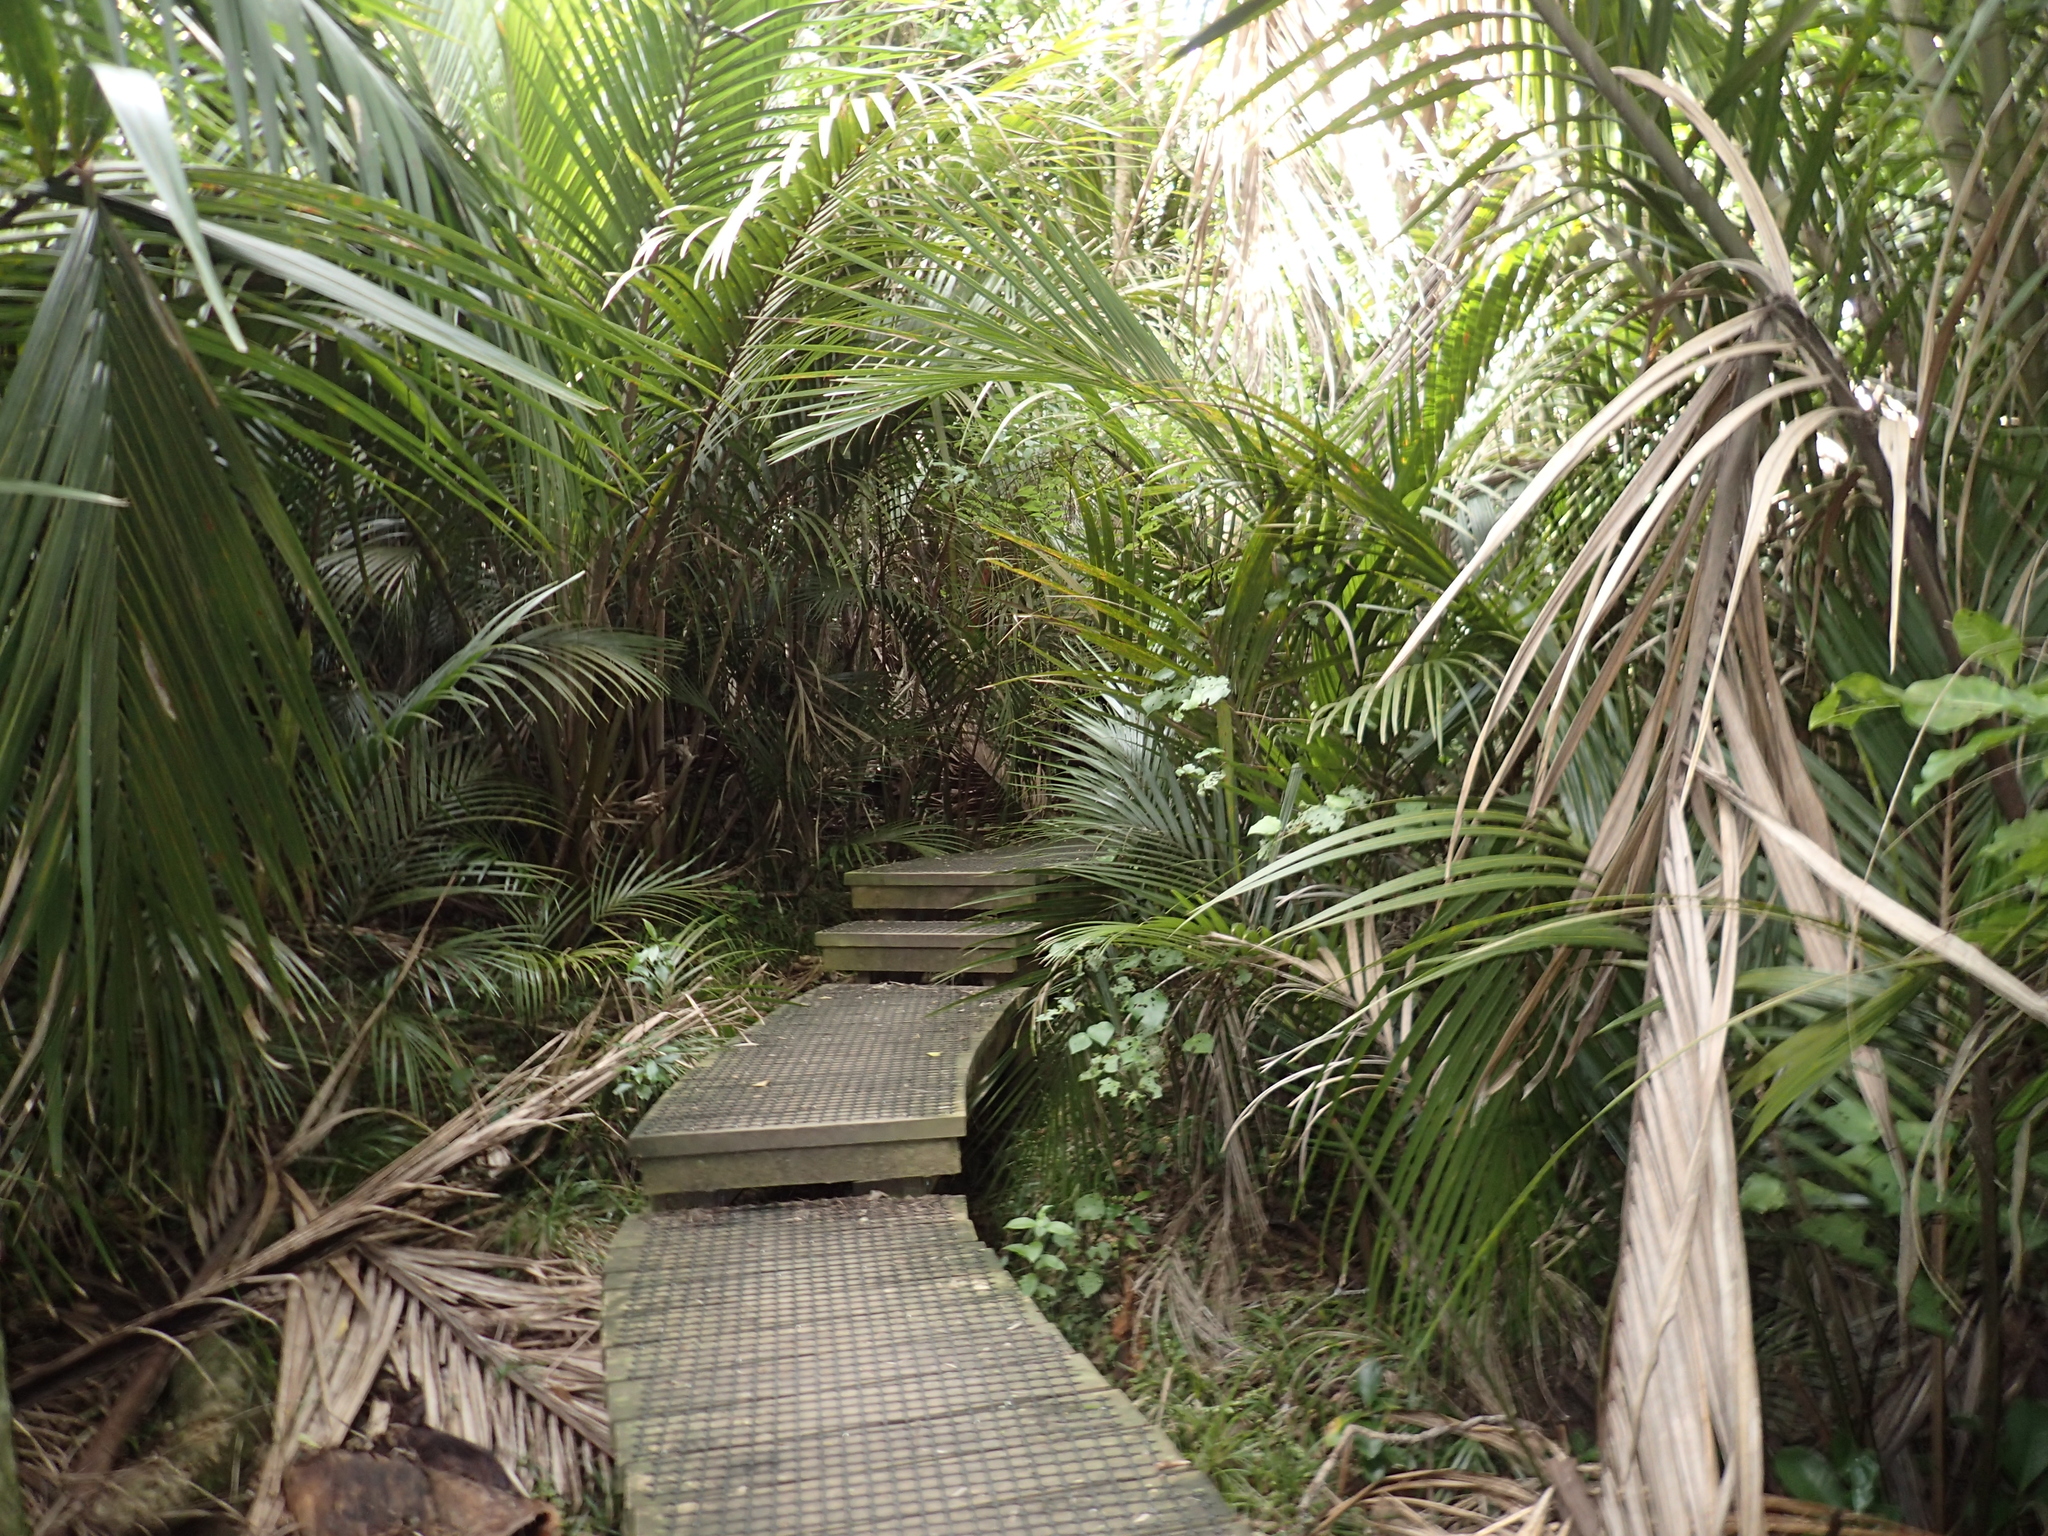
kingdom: Plantae
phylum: Tracheophyta
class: Liliopsida
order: Arecales
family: Arecaceae
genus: Rhopalostylis
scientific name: Rhopalostylis sapida
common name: Feather-duster palm
